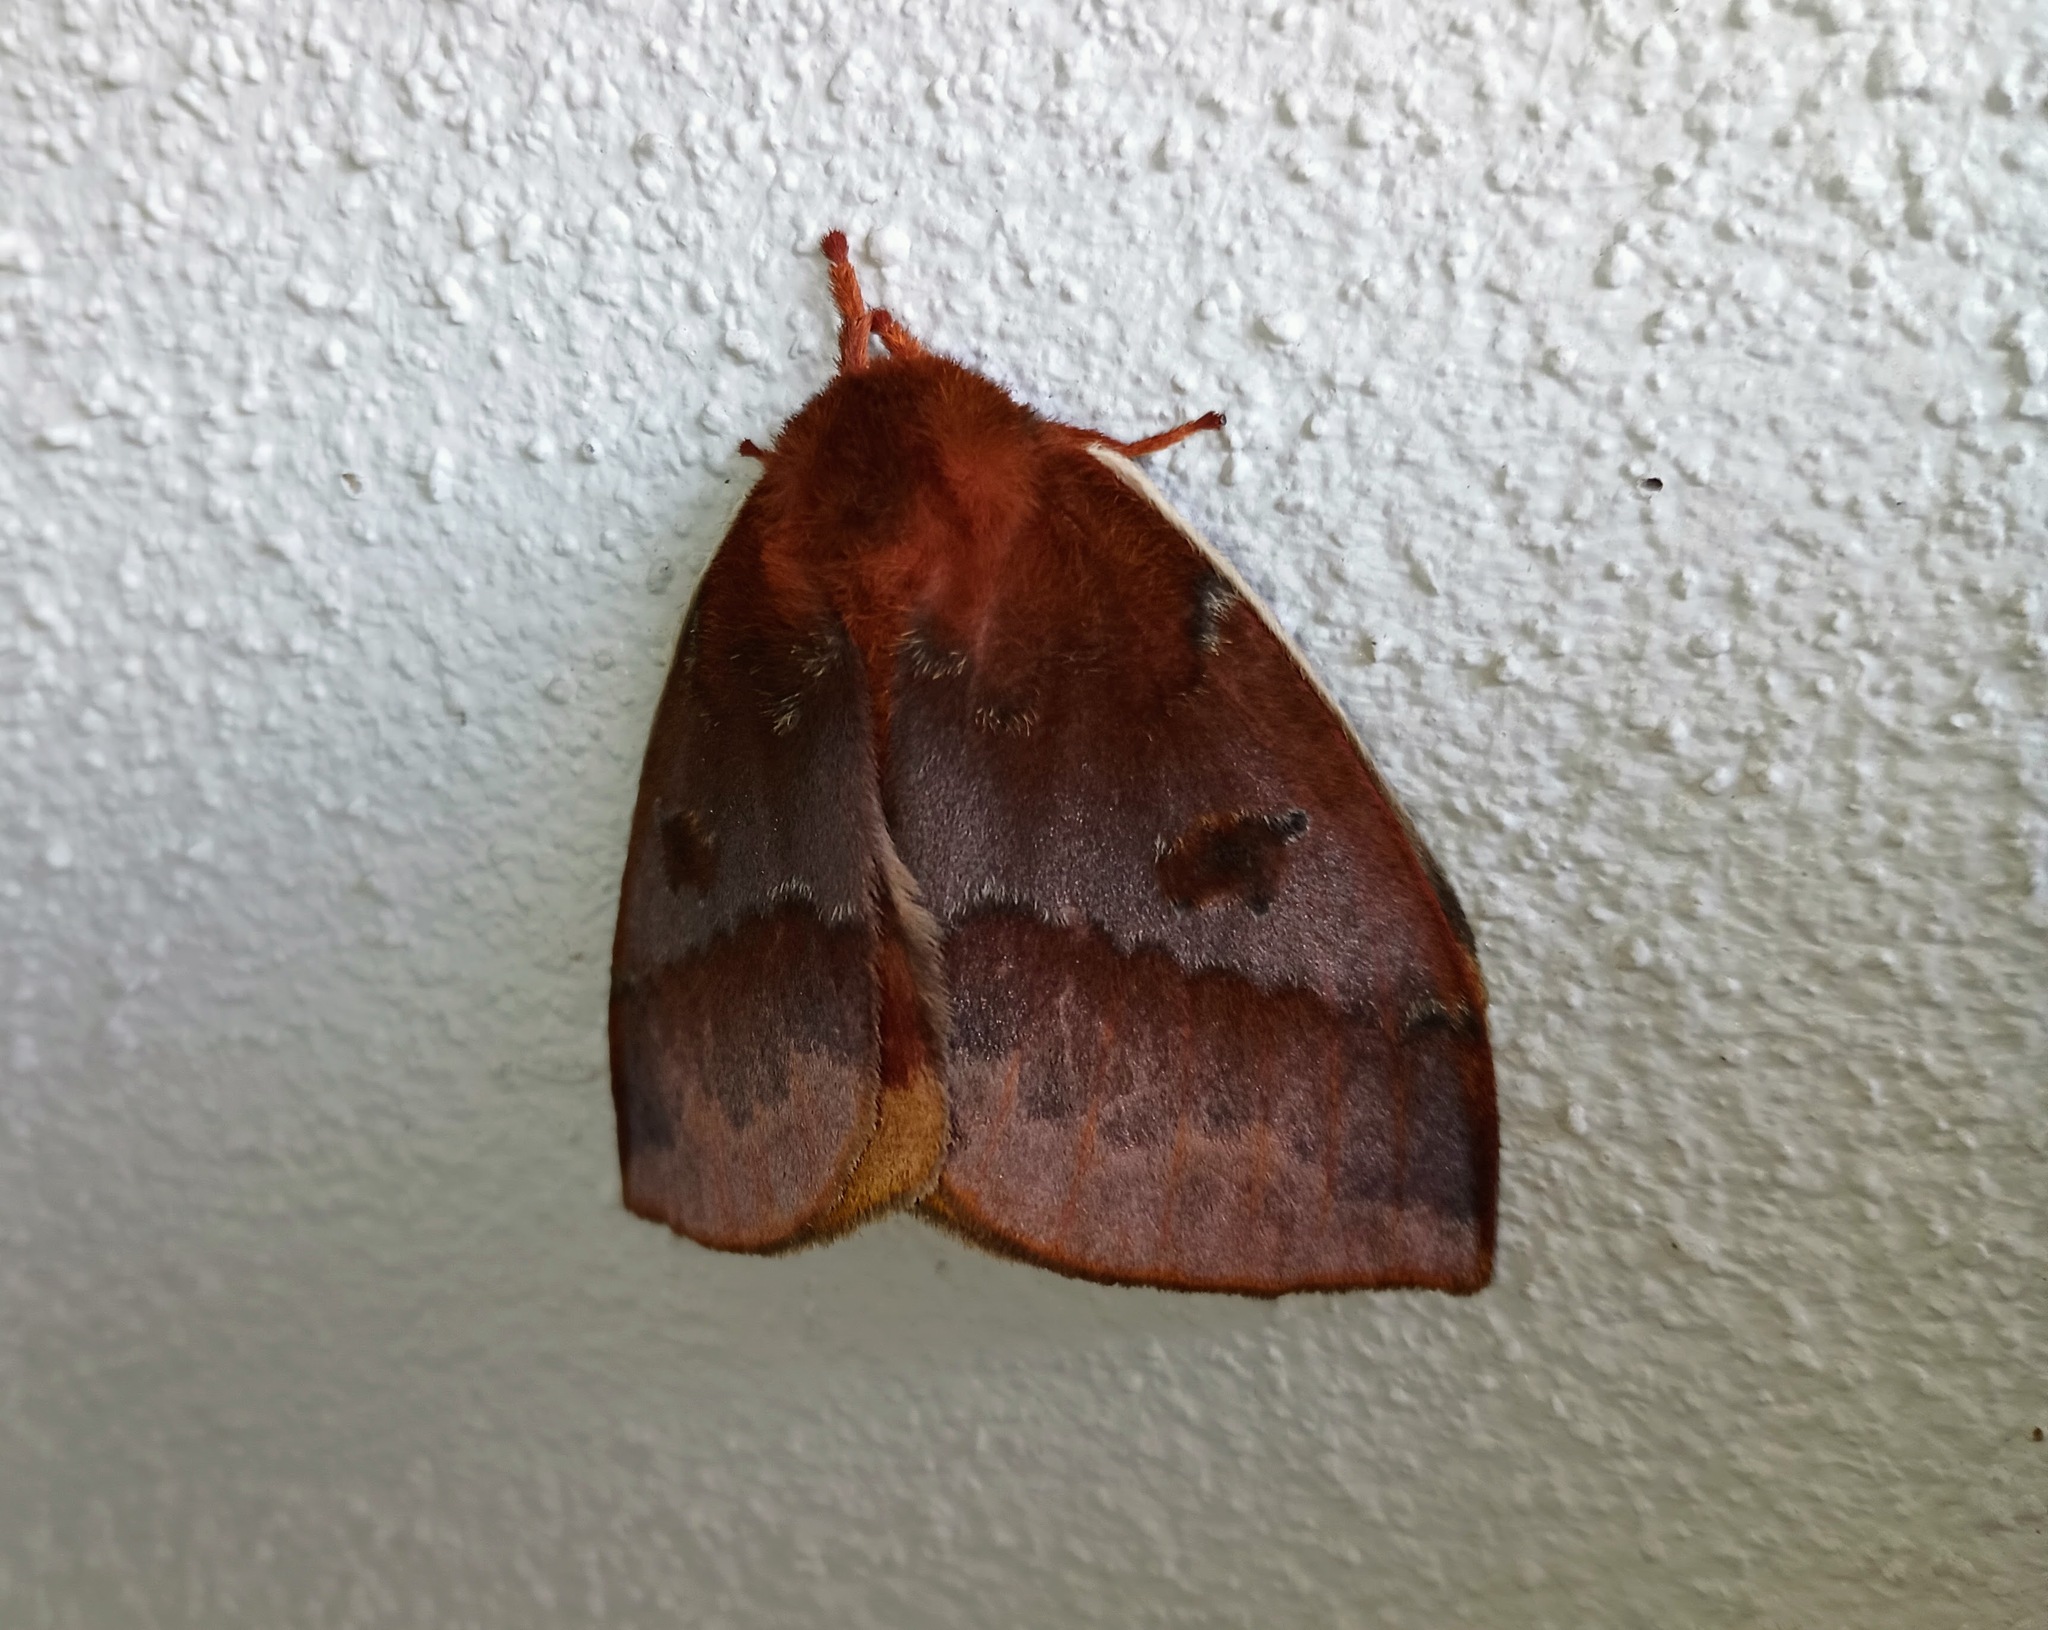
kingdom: Animalia
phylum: Arthropoda
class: Insecta
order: Lepidoptera
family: Saturniidae
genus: Automeris
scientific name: Automeris io
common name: Io moth
